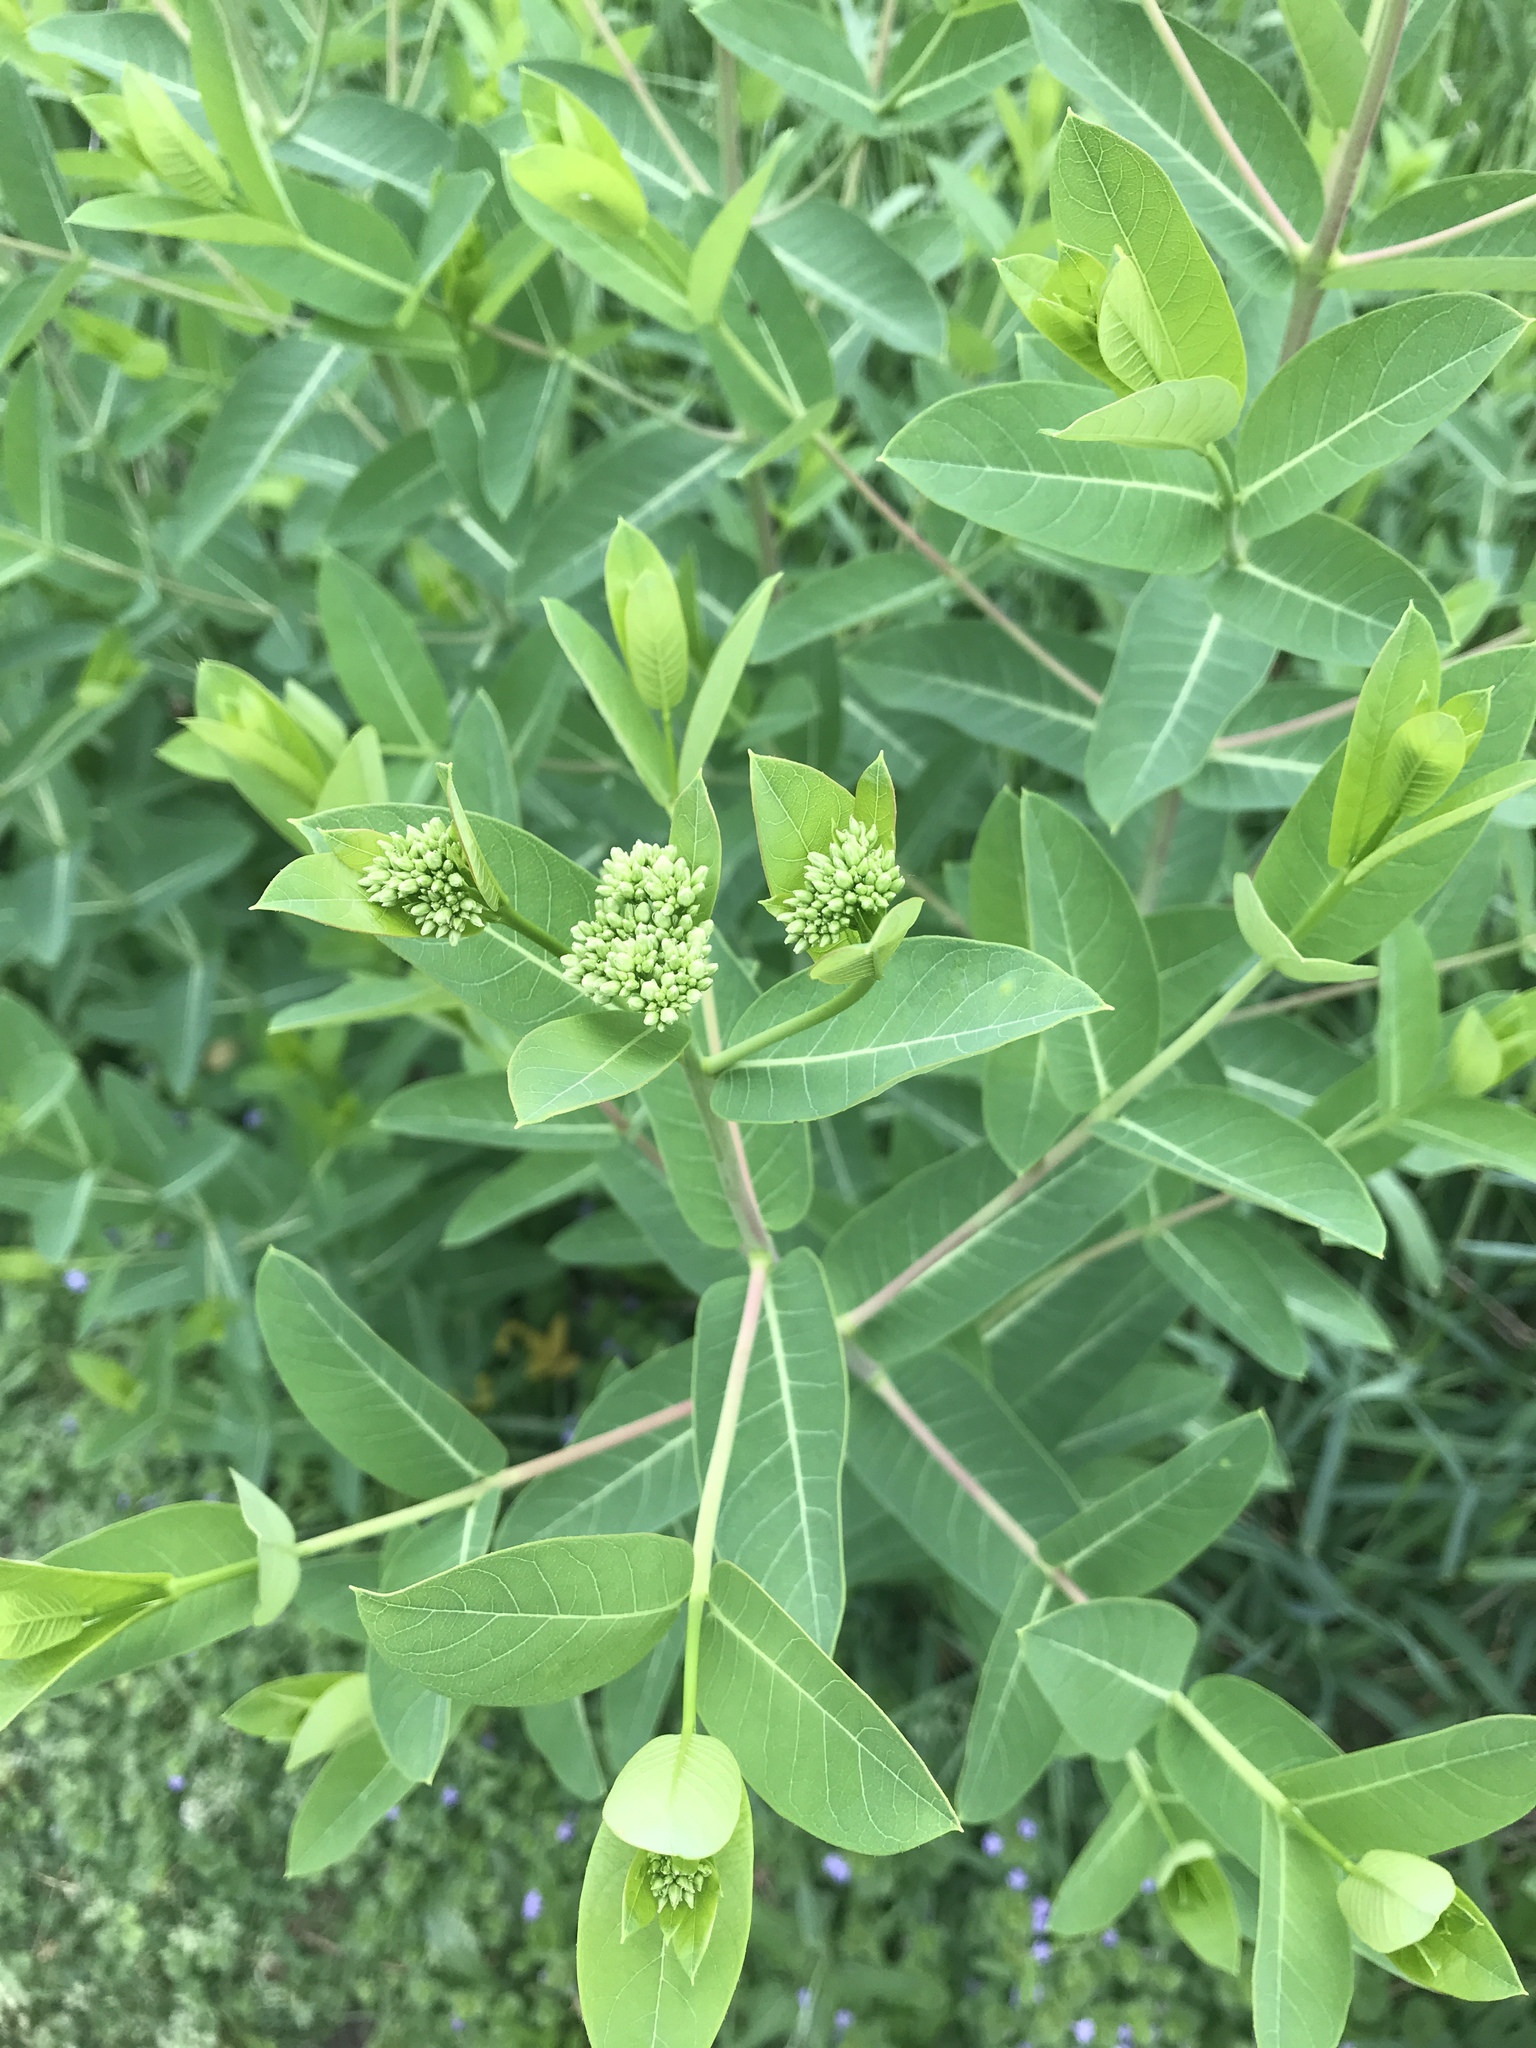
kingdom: Plantae
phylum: Tracheophyta
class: Magnoliopsida
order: Gentianales
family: Apocynaceae
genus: Apocynum
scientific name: Apocynum cannabinum
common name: Hemp dogbane
